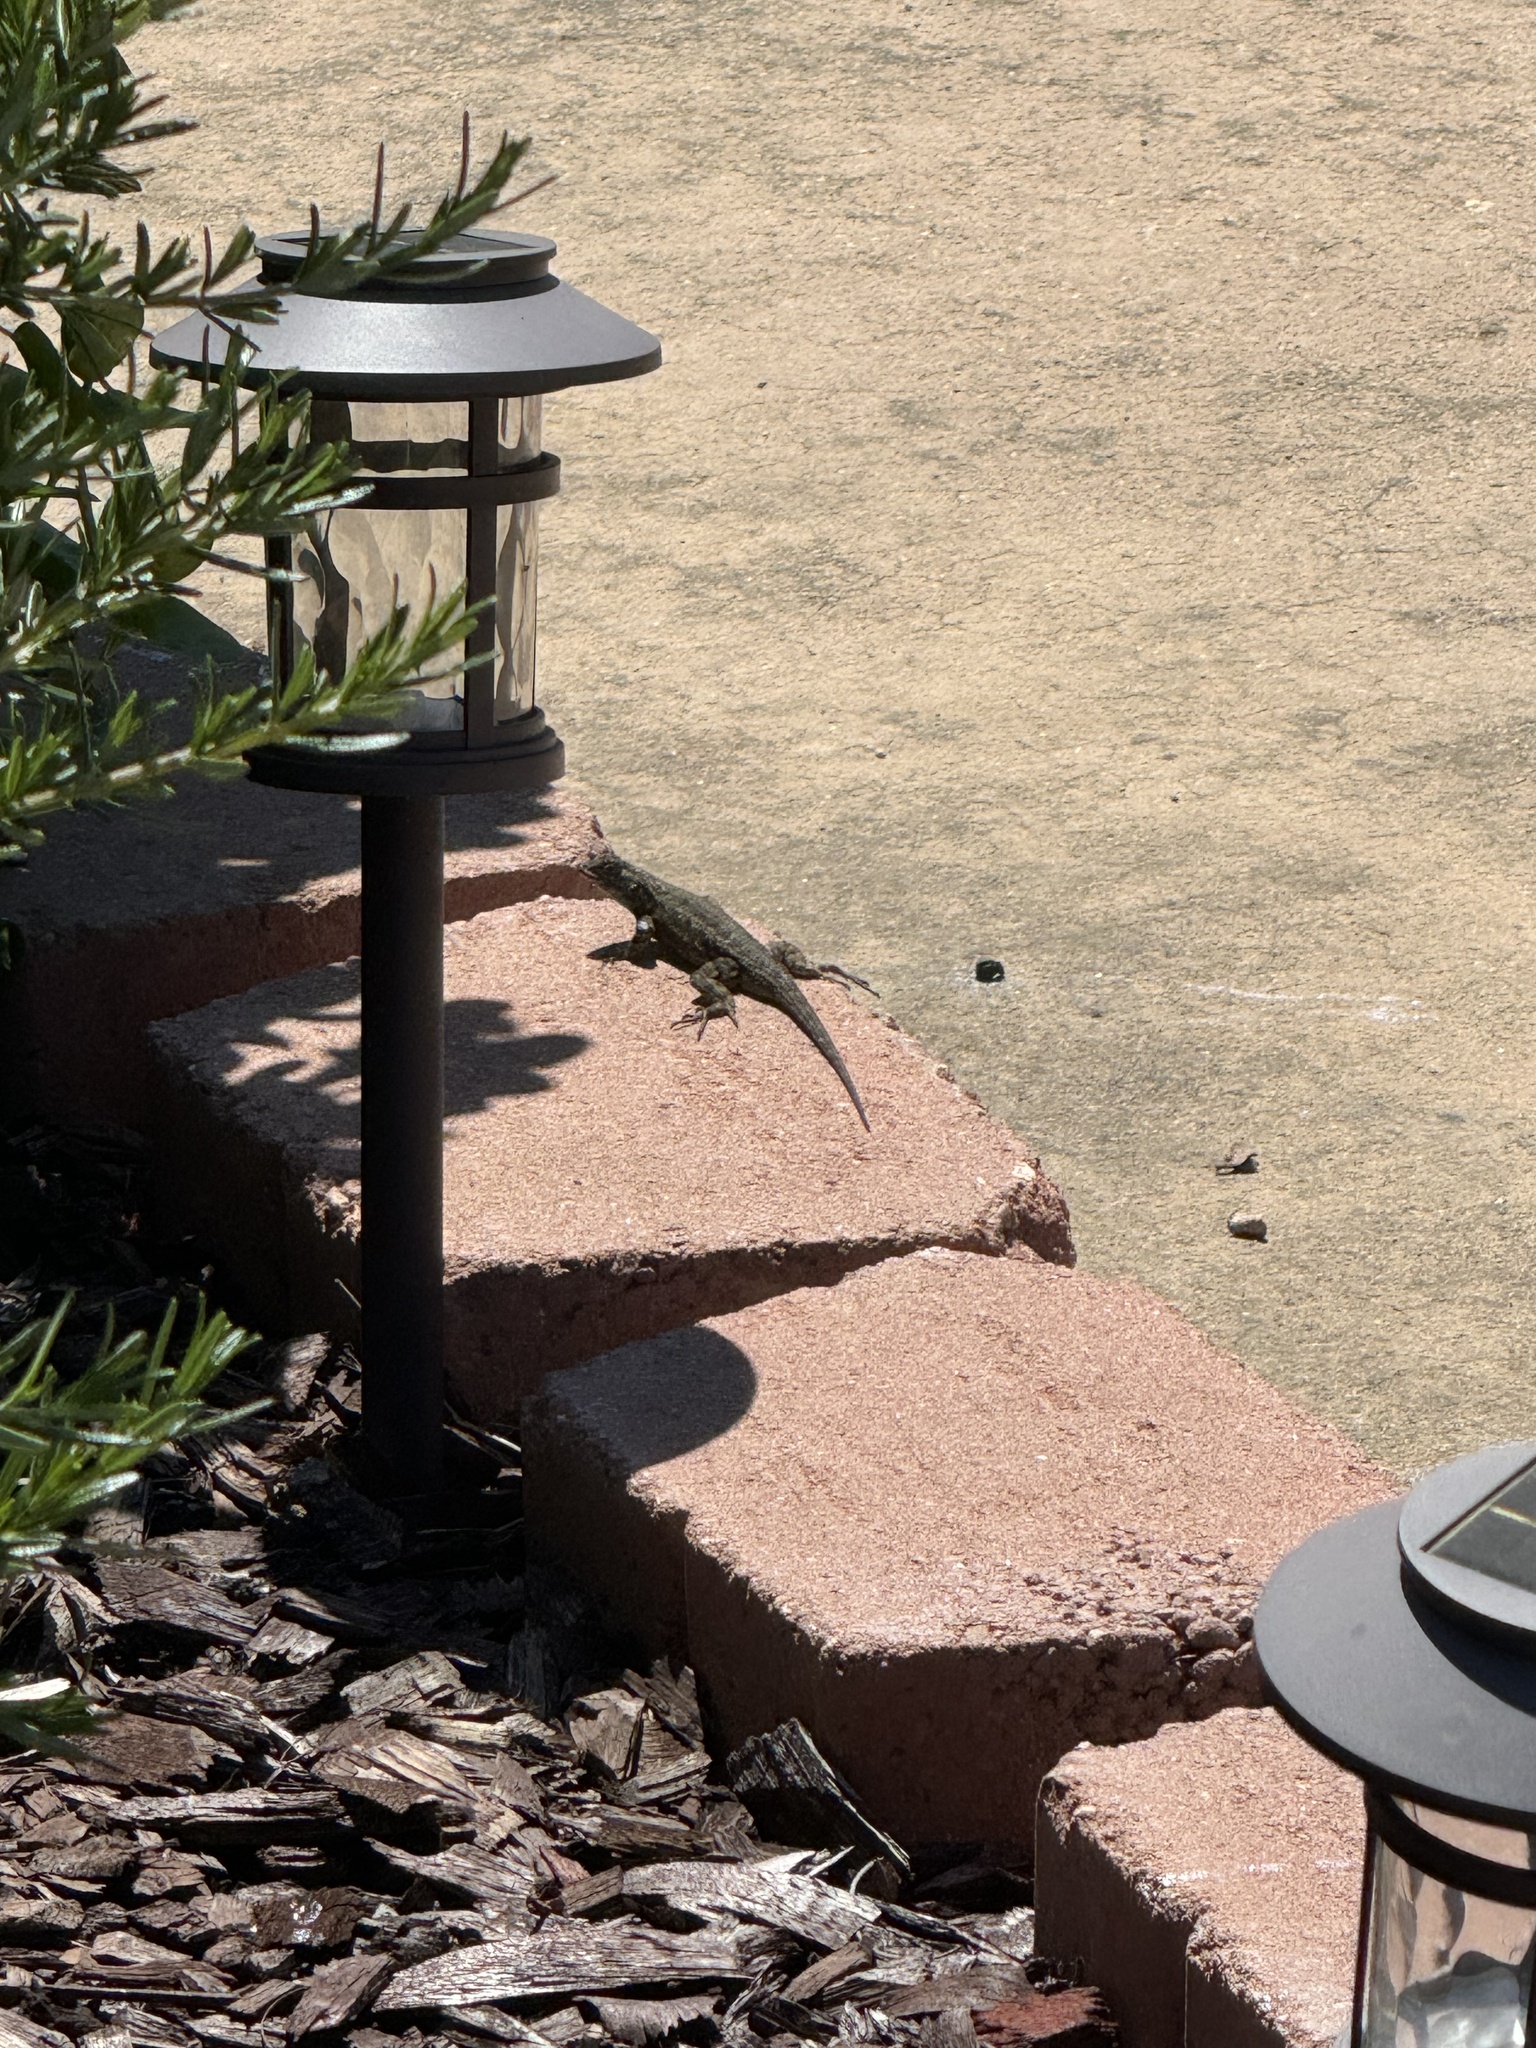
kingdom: Animalia
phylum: Chordata
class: Squamata
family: Phrynosomatidae
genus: Sceloporus
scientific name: Sceloporus occidentalis
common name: Western fence lizard
